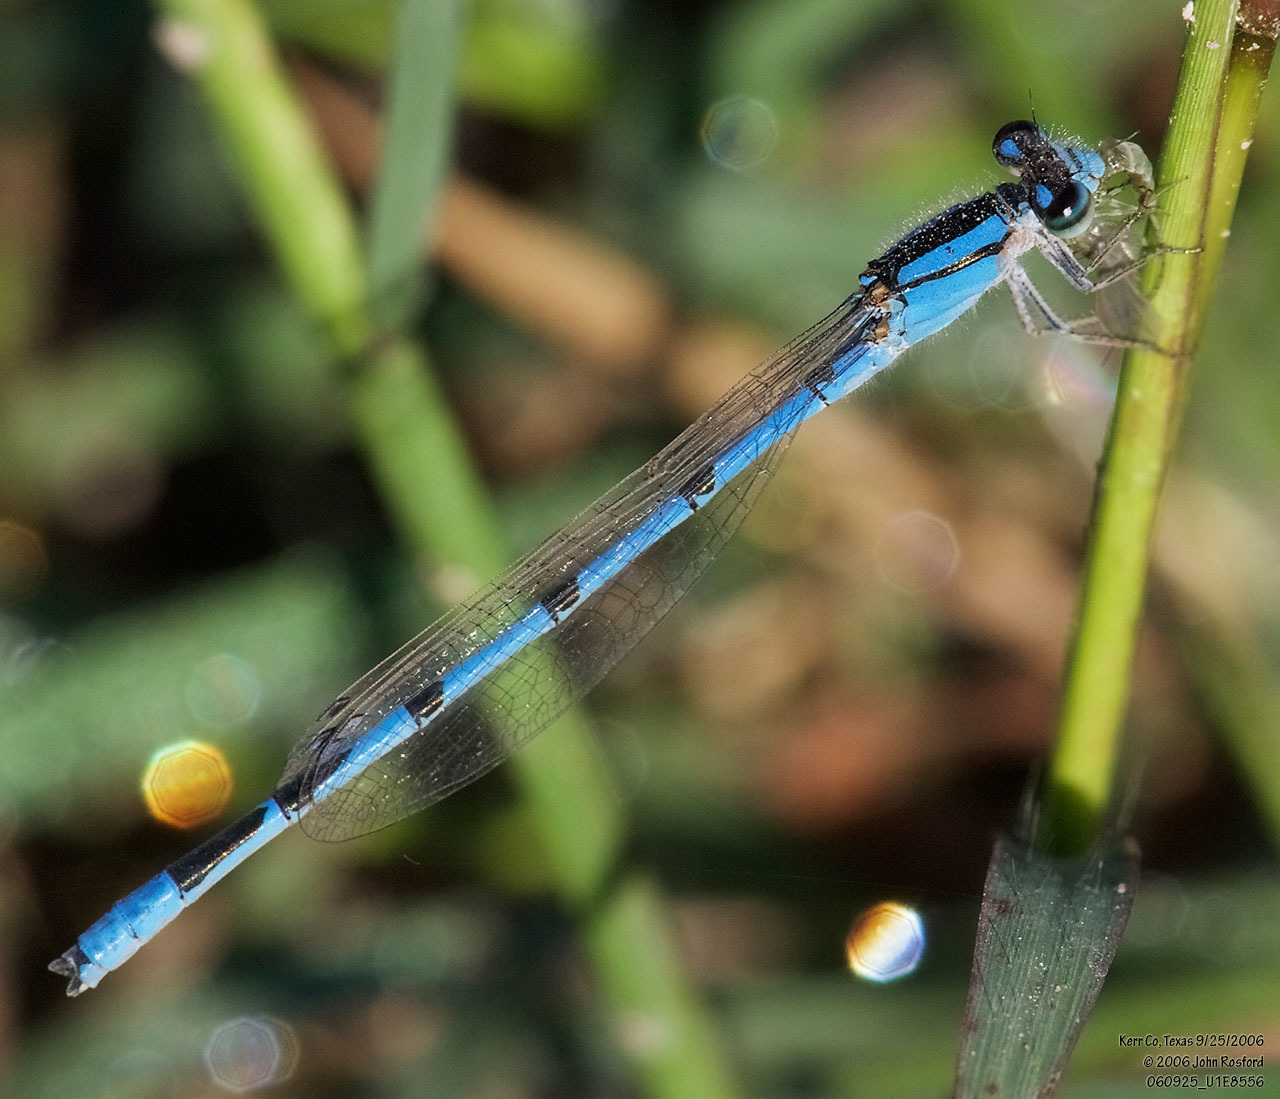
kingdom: Animalia
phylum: Arthropoda
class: Insecta
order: Odonata
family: Coenagrionidae
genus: Enallagma
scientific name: Enallagma civile
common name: Damselfly
